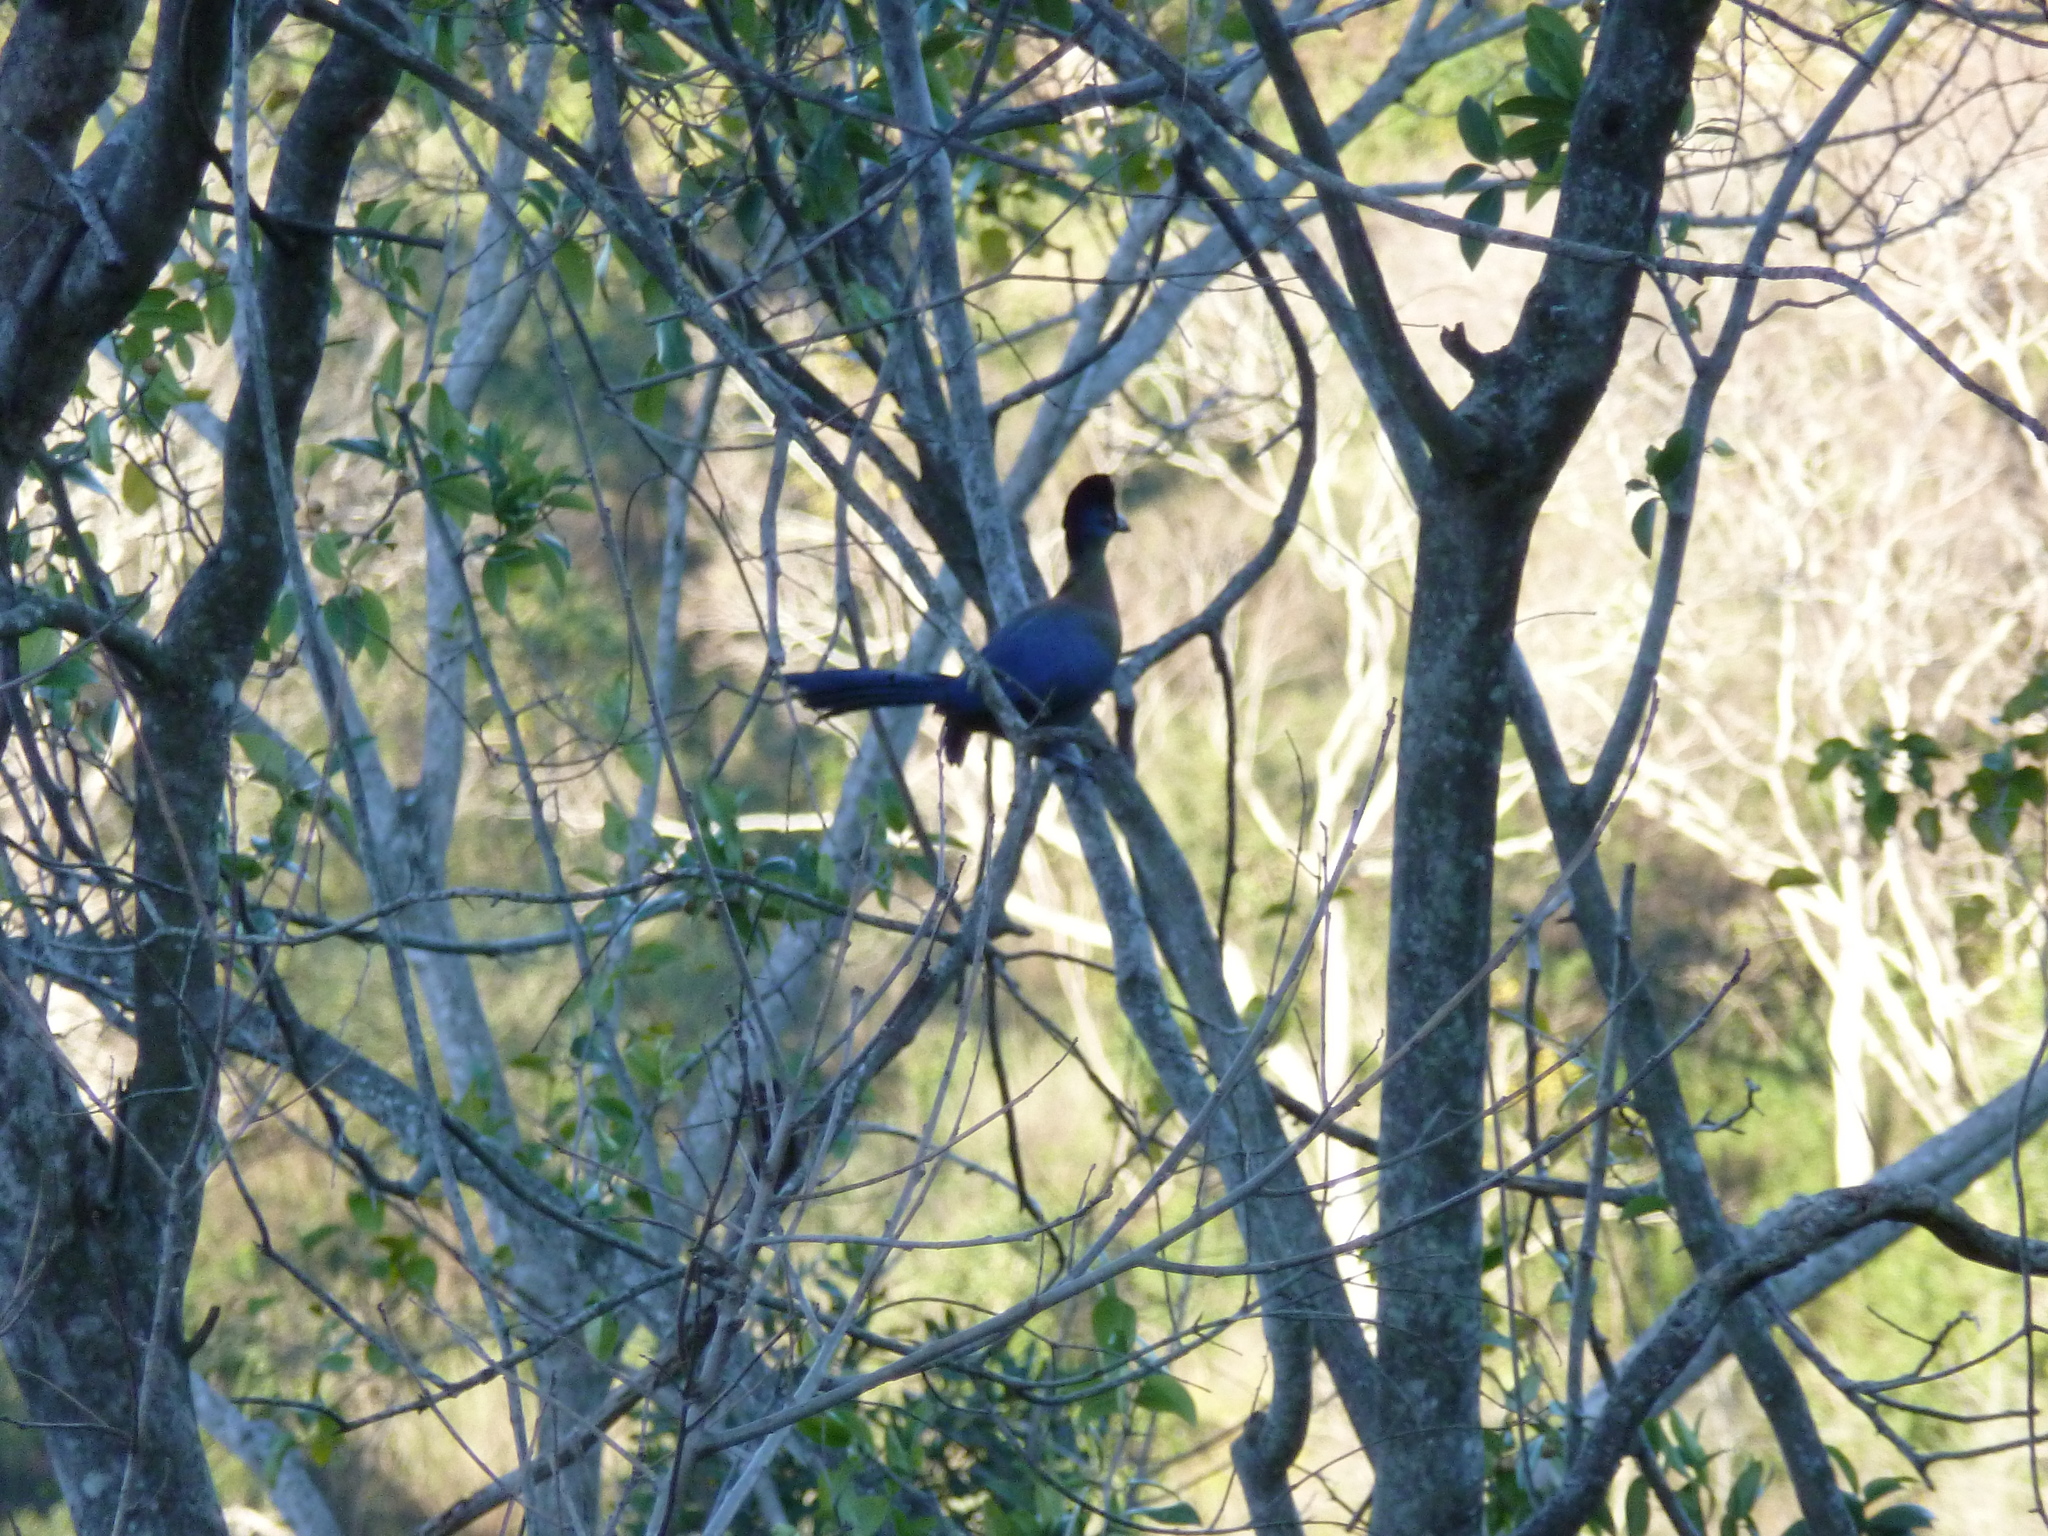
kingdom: Animalia
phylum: Chordata
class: Aves
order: Musophagiformes
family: Musophagidae
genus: Tauraco
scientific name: Tauraco porphyreolophus
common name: Purple-crested turaco
